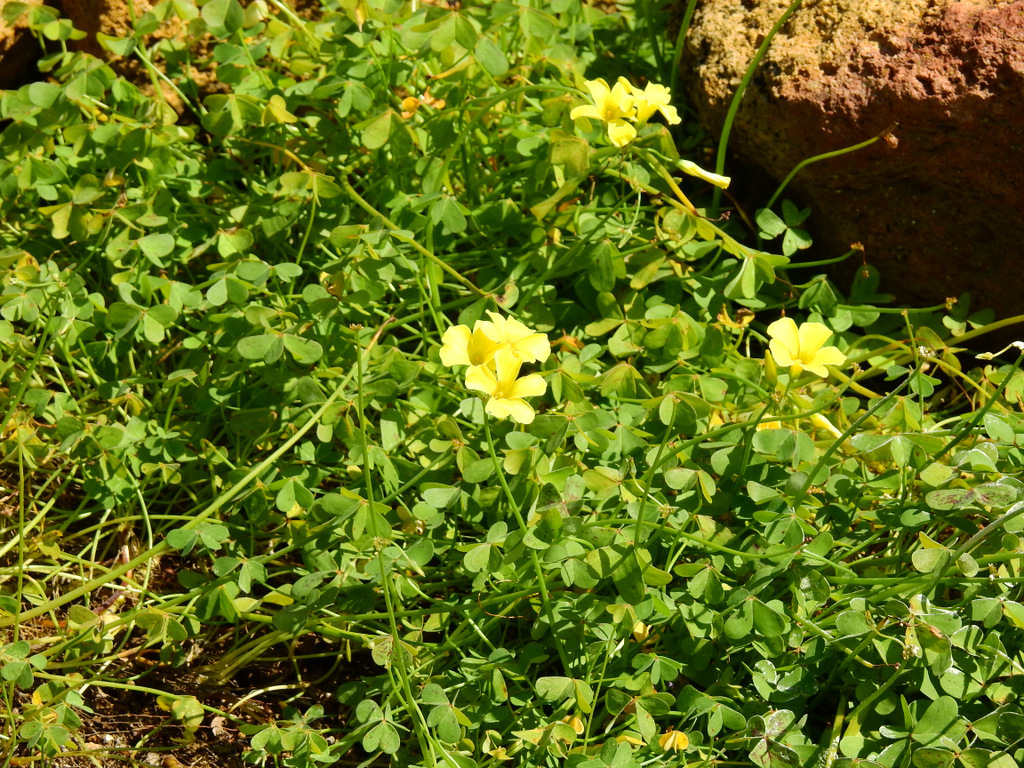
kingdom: Plantae
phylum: Tracheophyta
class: Magnoliopsida
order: Oxalidales
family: Oxalidaceae
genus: Oxalis
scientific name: Oxalis pes-caprae
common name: Bermuda-buttercup
